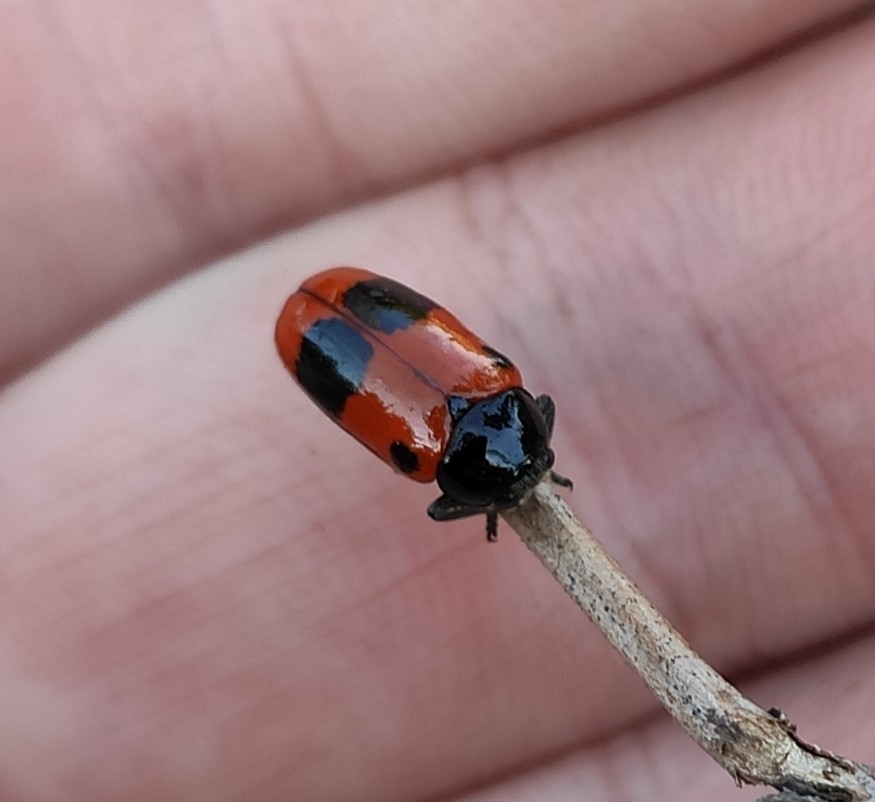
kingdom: Animalia
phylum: Arthropoda
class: Insecta
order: Coleoptera
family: Chrysomelidae
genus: Clytra
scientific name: Clytra laeviuscula
